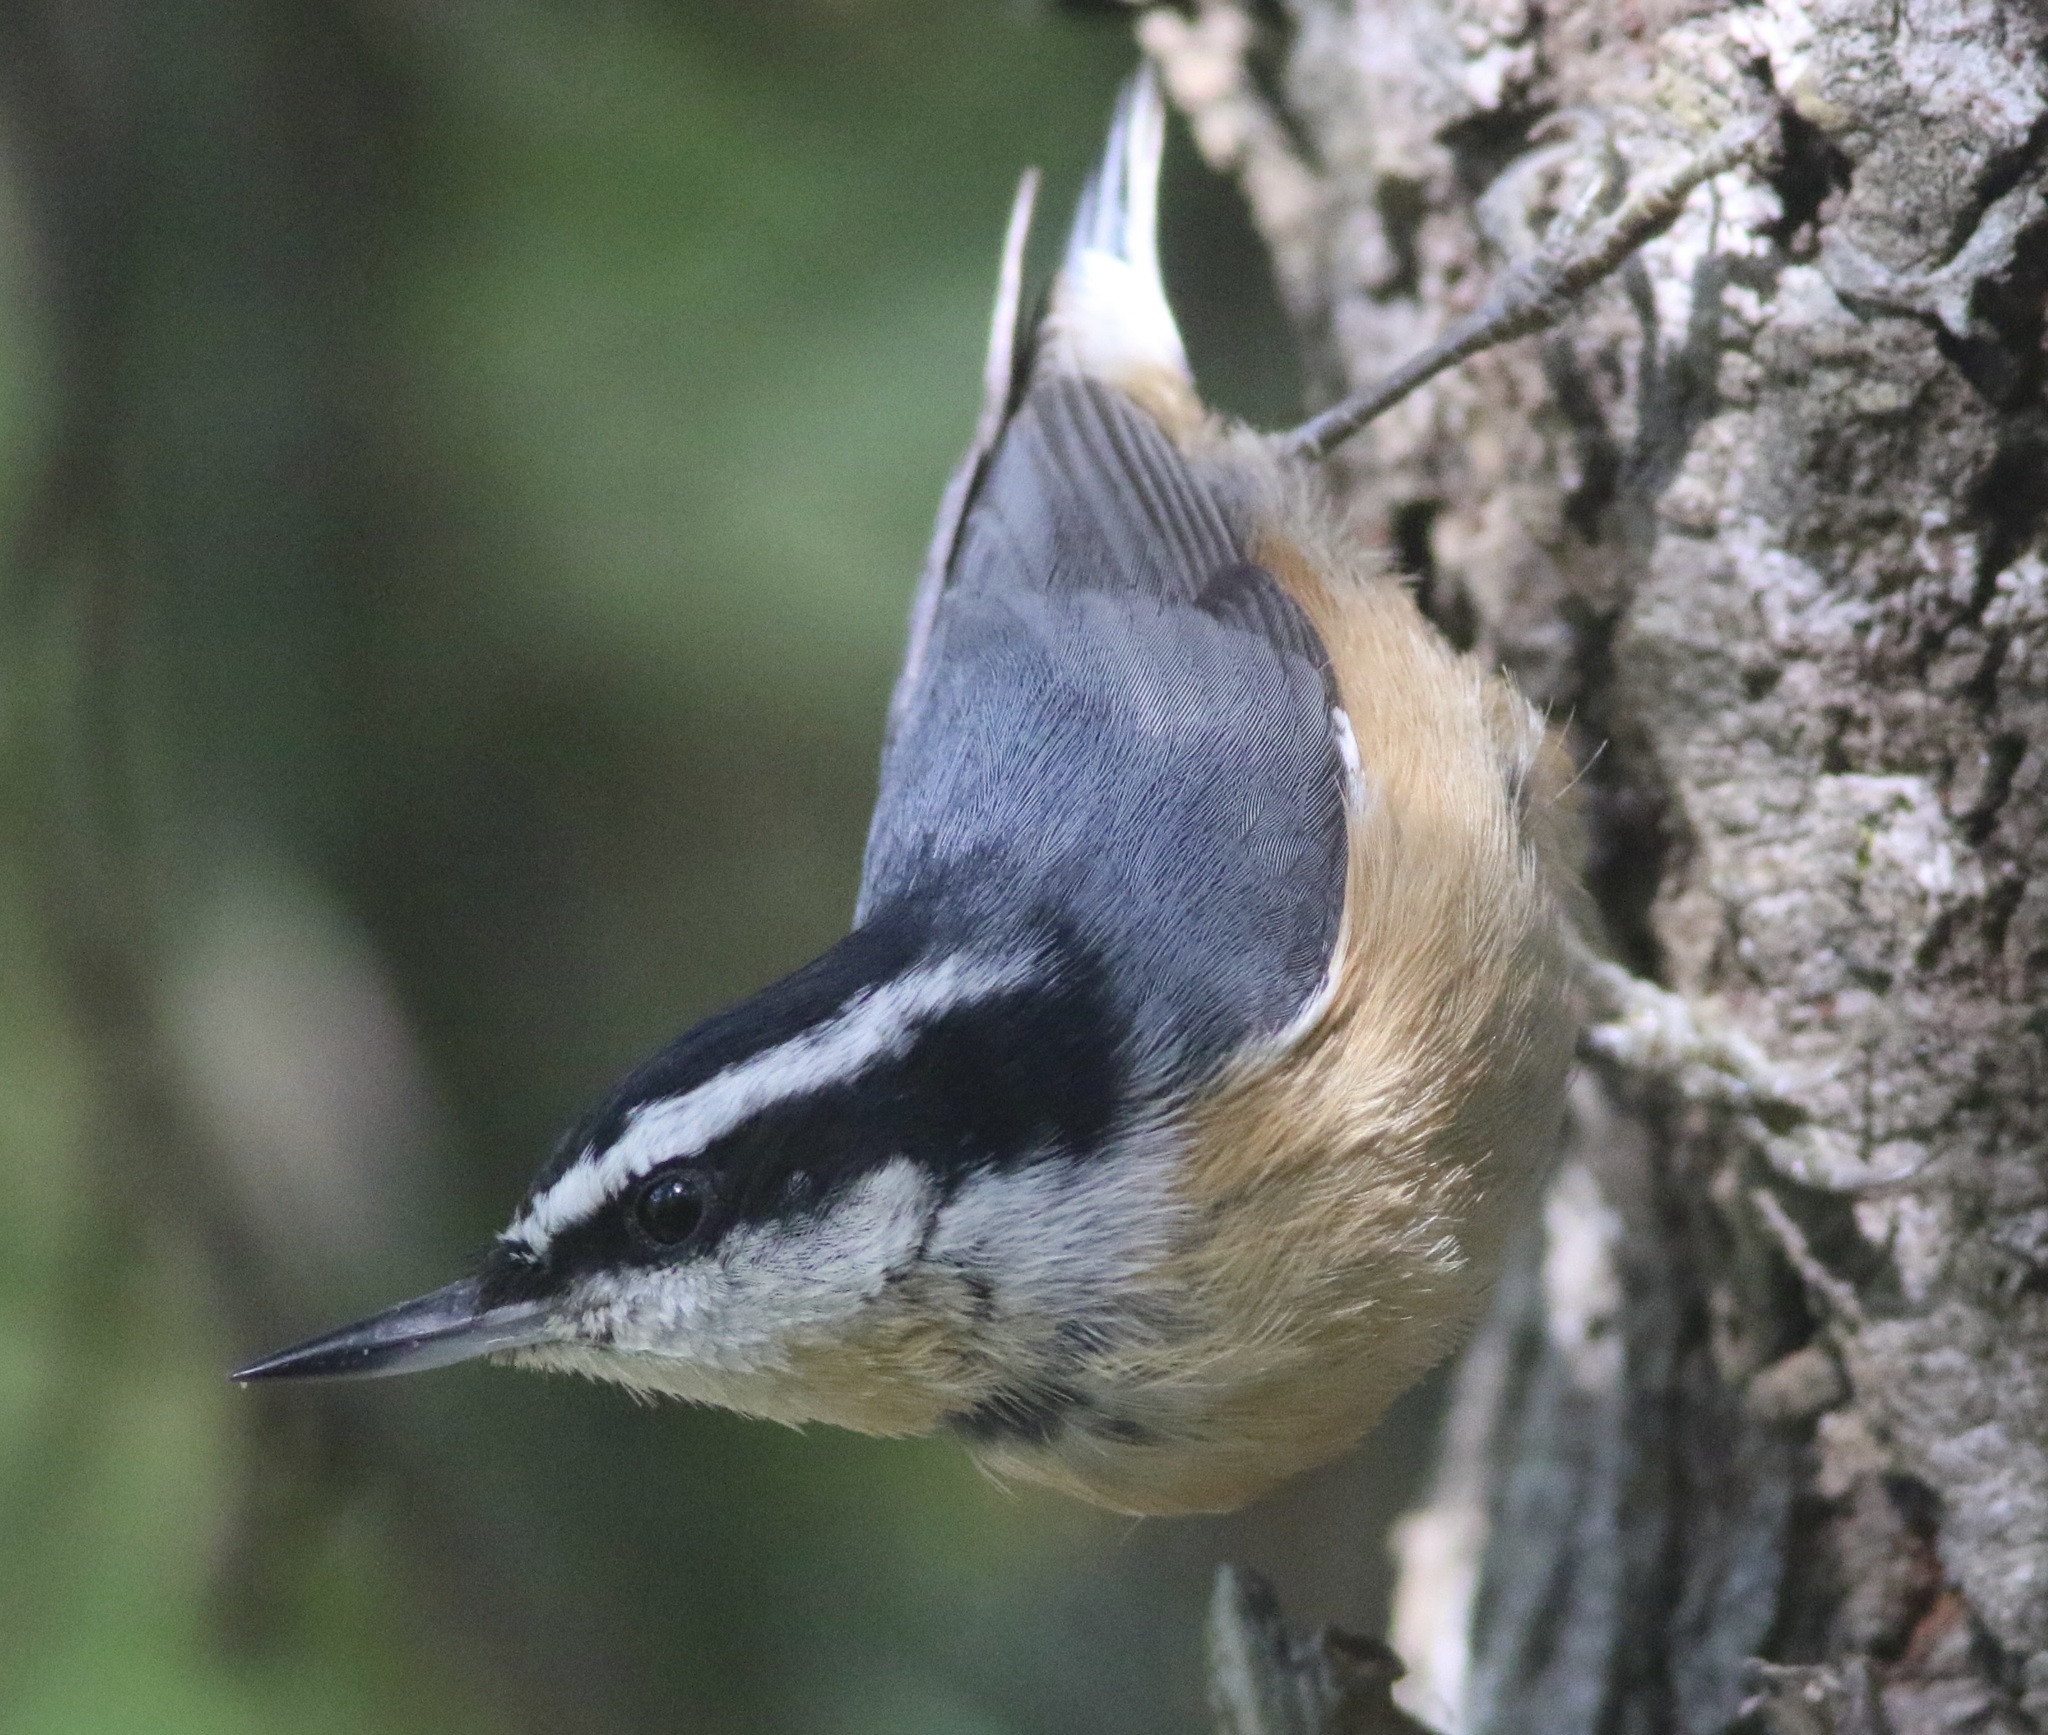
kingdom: Animalia
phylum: Chordata
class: Aves
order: Passeriformes
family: Sittidae
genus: Sitta
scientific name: Sitta canadensis
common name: Red-breasted nuthatch
